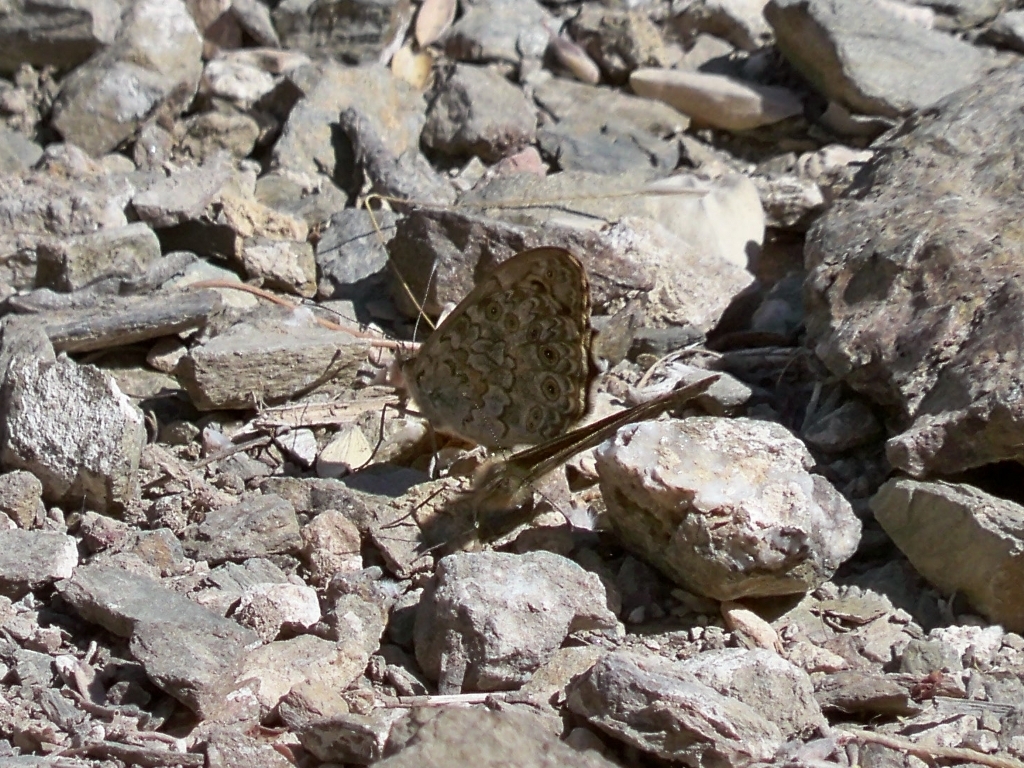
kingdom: Animalia
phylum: Arthropoda
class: Insecta
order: Lepidoptera
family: Nymphalidae
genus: Pararge
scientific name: Pararge Lasiommata megera
